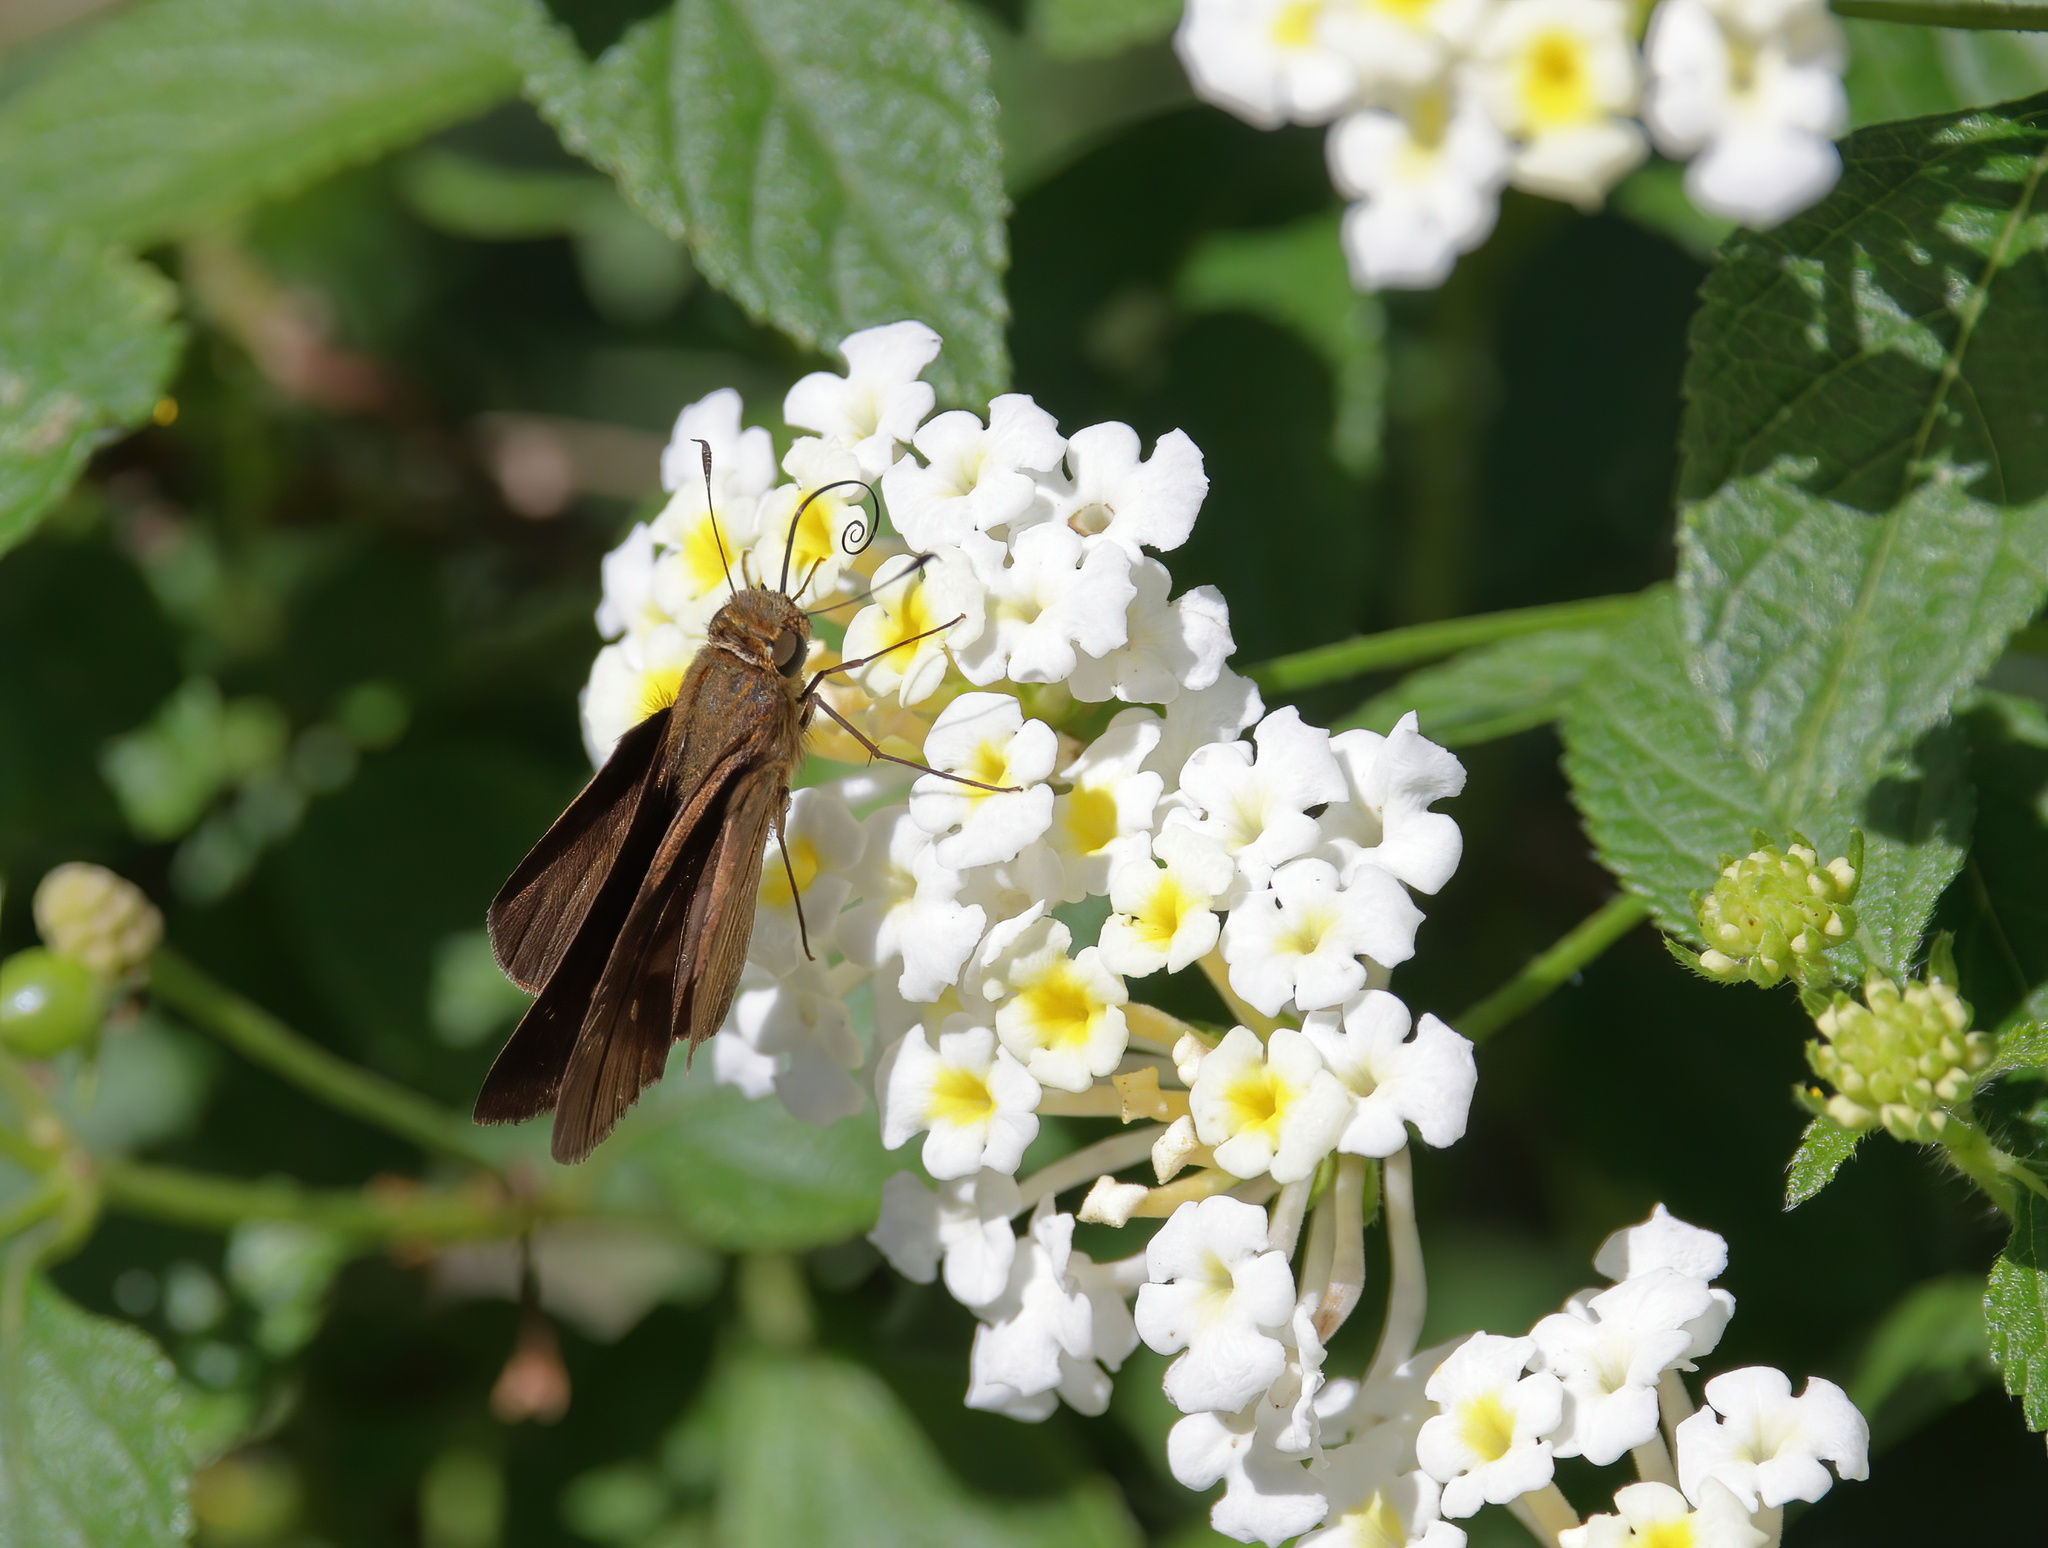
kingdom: Animalia
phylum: Arthropoda
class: Insecta
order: Lepidoptera
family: Hesperiidae
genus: Panoquina
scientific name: Panoquina ocola
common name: Ocola skipper
